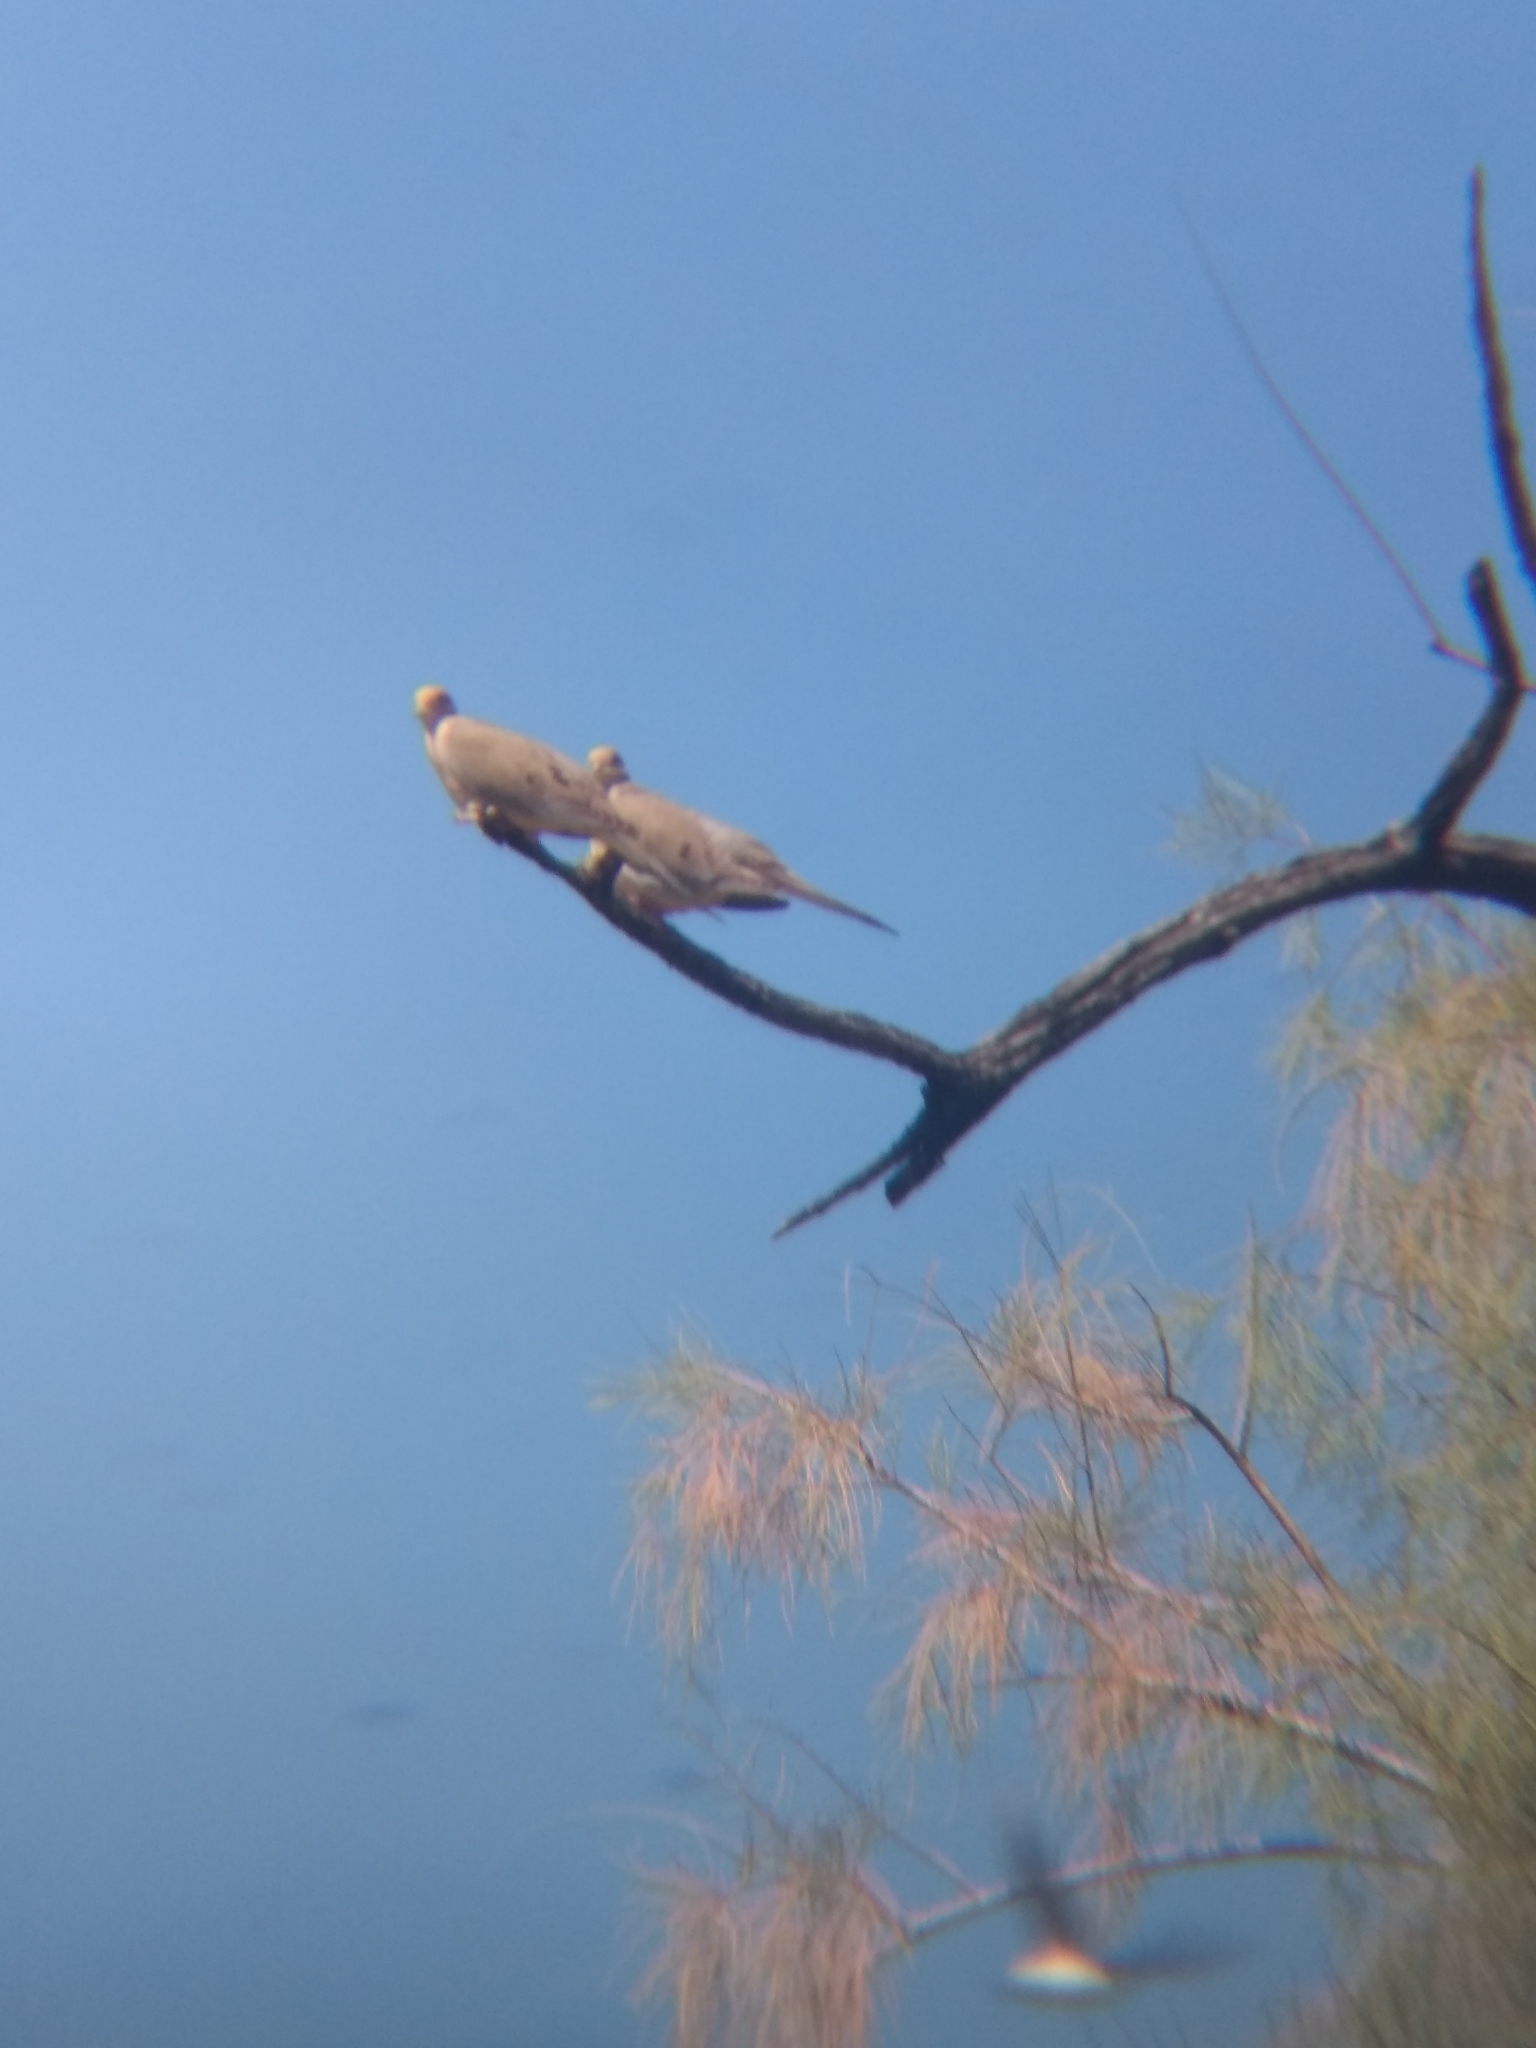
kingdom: Animalia
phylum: Chordata
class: Aves
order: Columbiformes
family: Columbidae
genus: Zenaida
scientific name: Zenaida macroura
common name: Mourning dove
